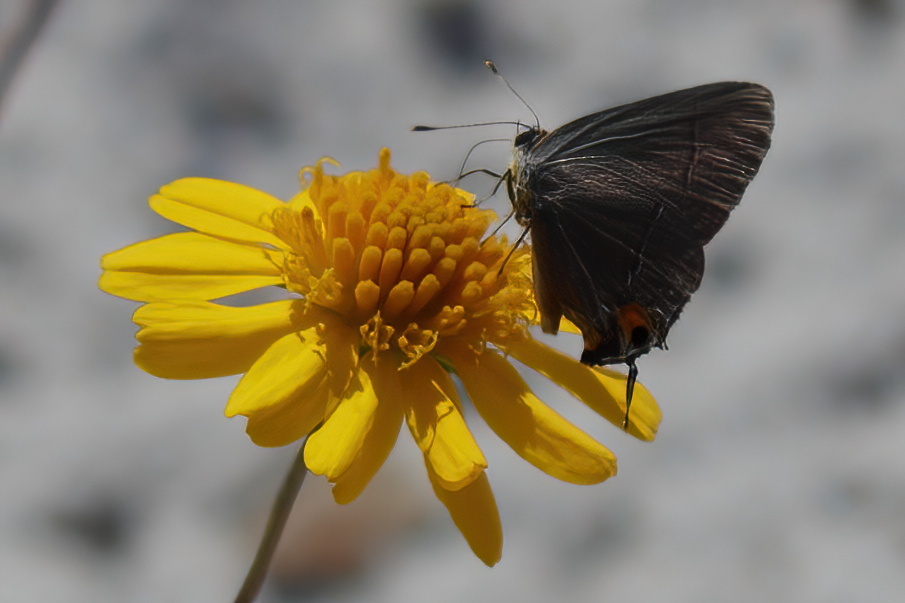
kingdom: Animalia
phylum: Arthropoda
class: Insecta
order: Lepidoptera
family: Lycaenidae
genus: Strymon
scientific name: Strymon melinus
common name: Gray hairstreak
